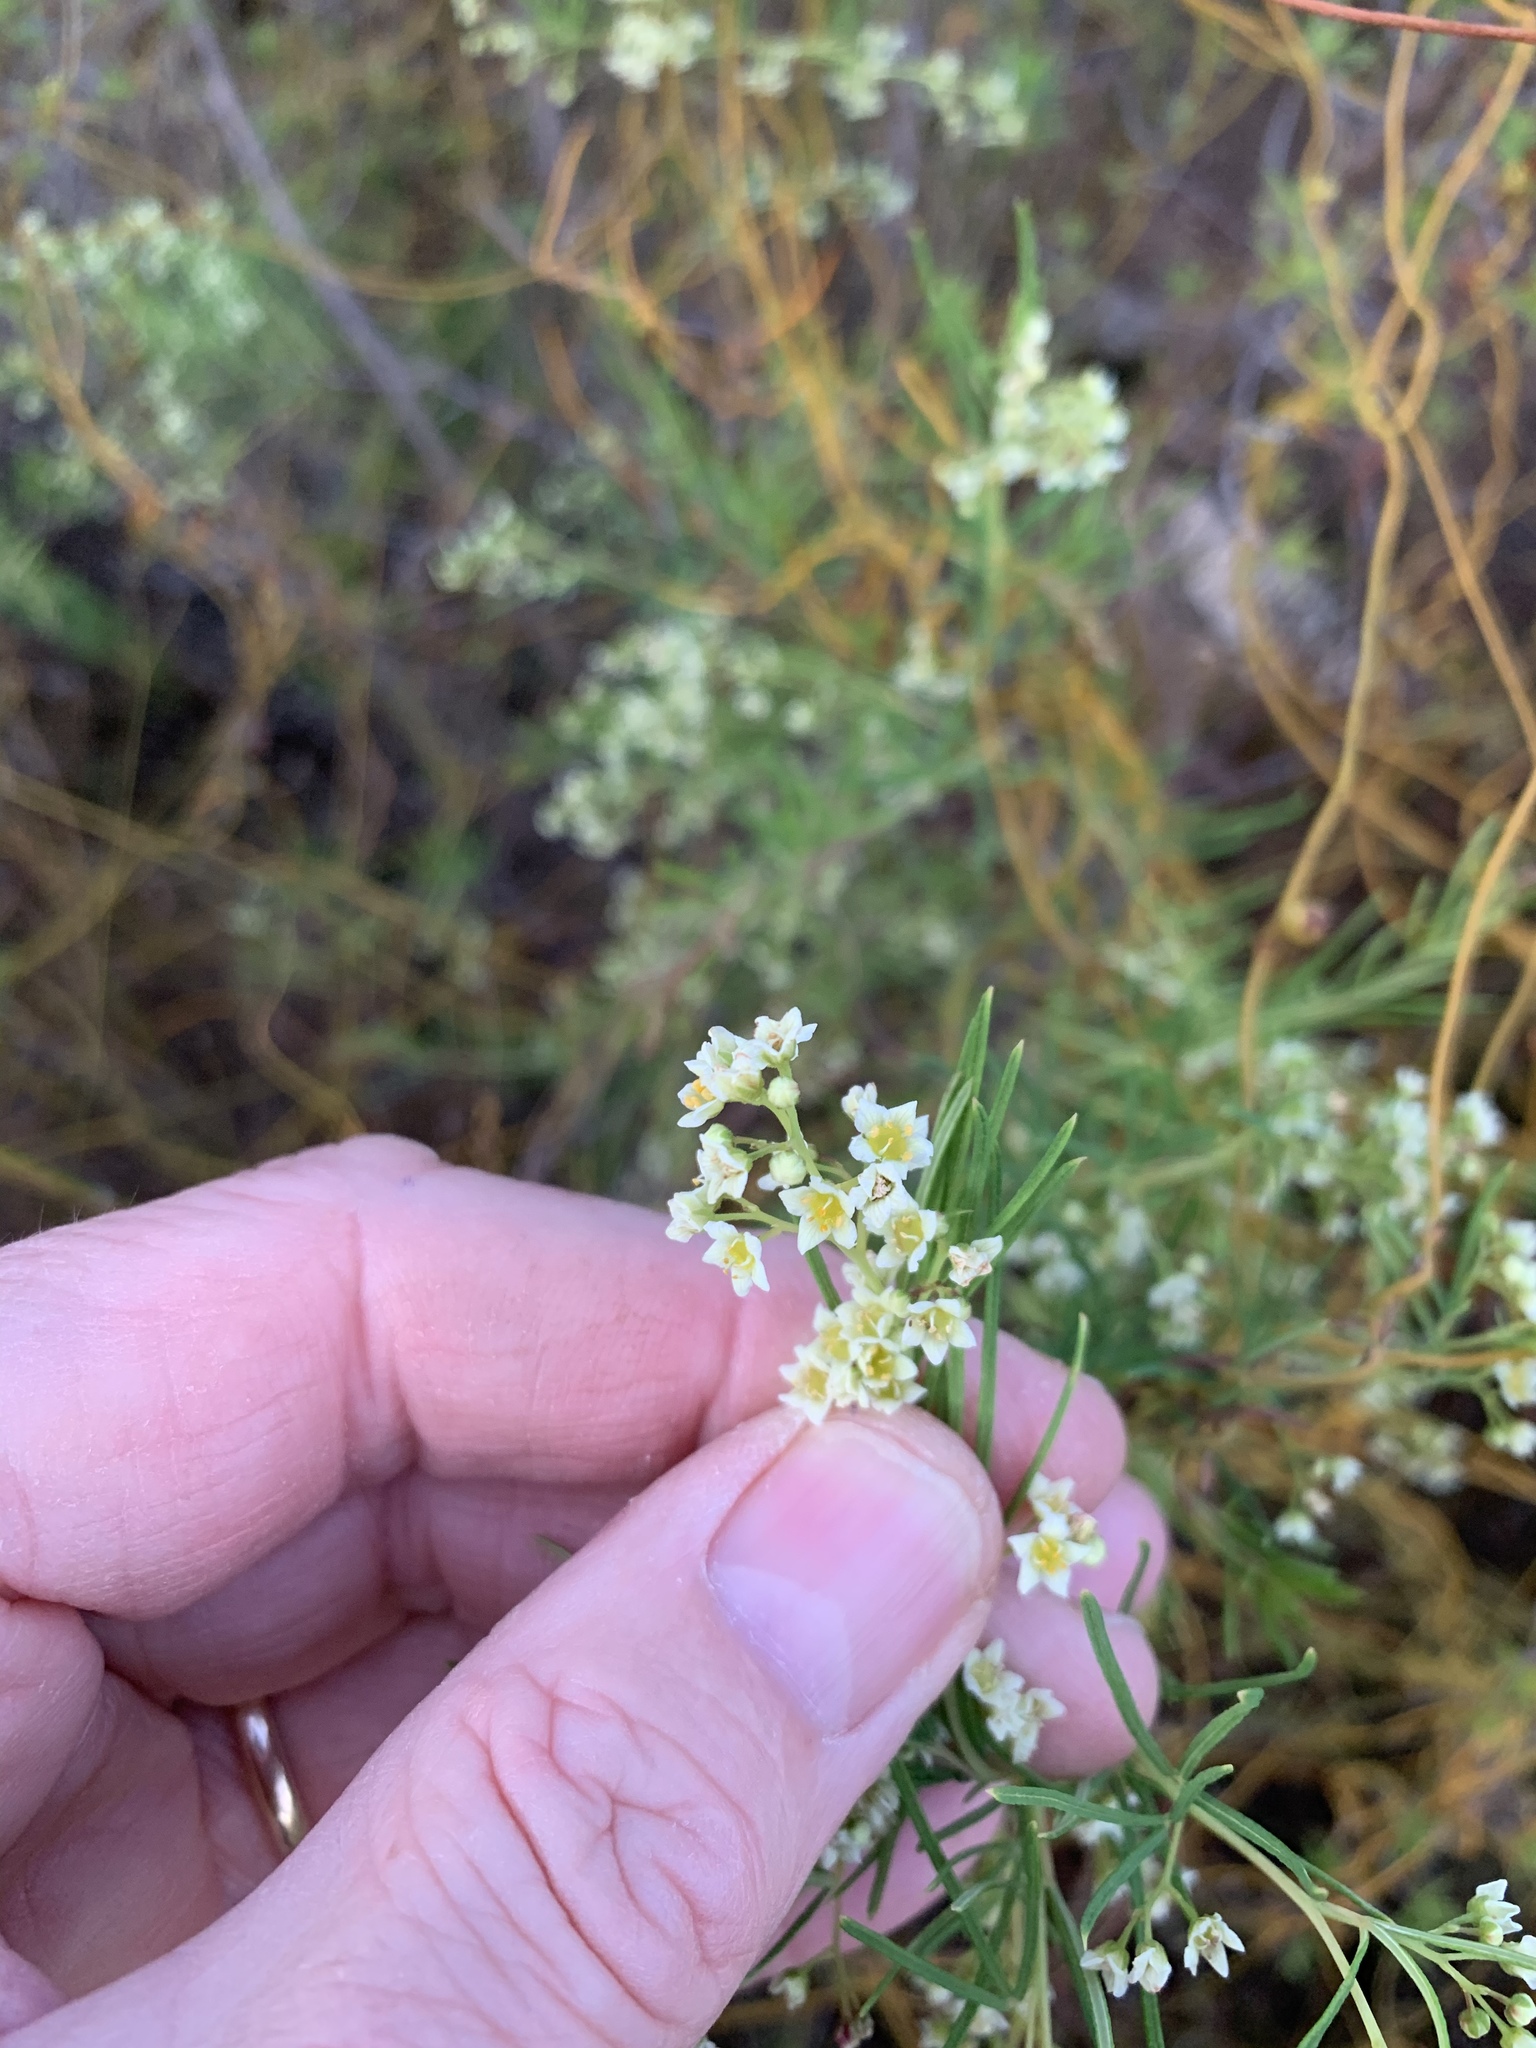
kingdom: Plantae
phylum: Tracheophyta
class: Magnoliopsida
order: Sapindales
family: Anacardiaceae
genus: Searsia
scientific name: Searsia rosmarinifolia
